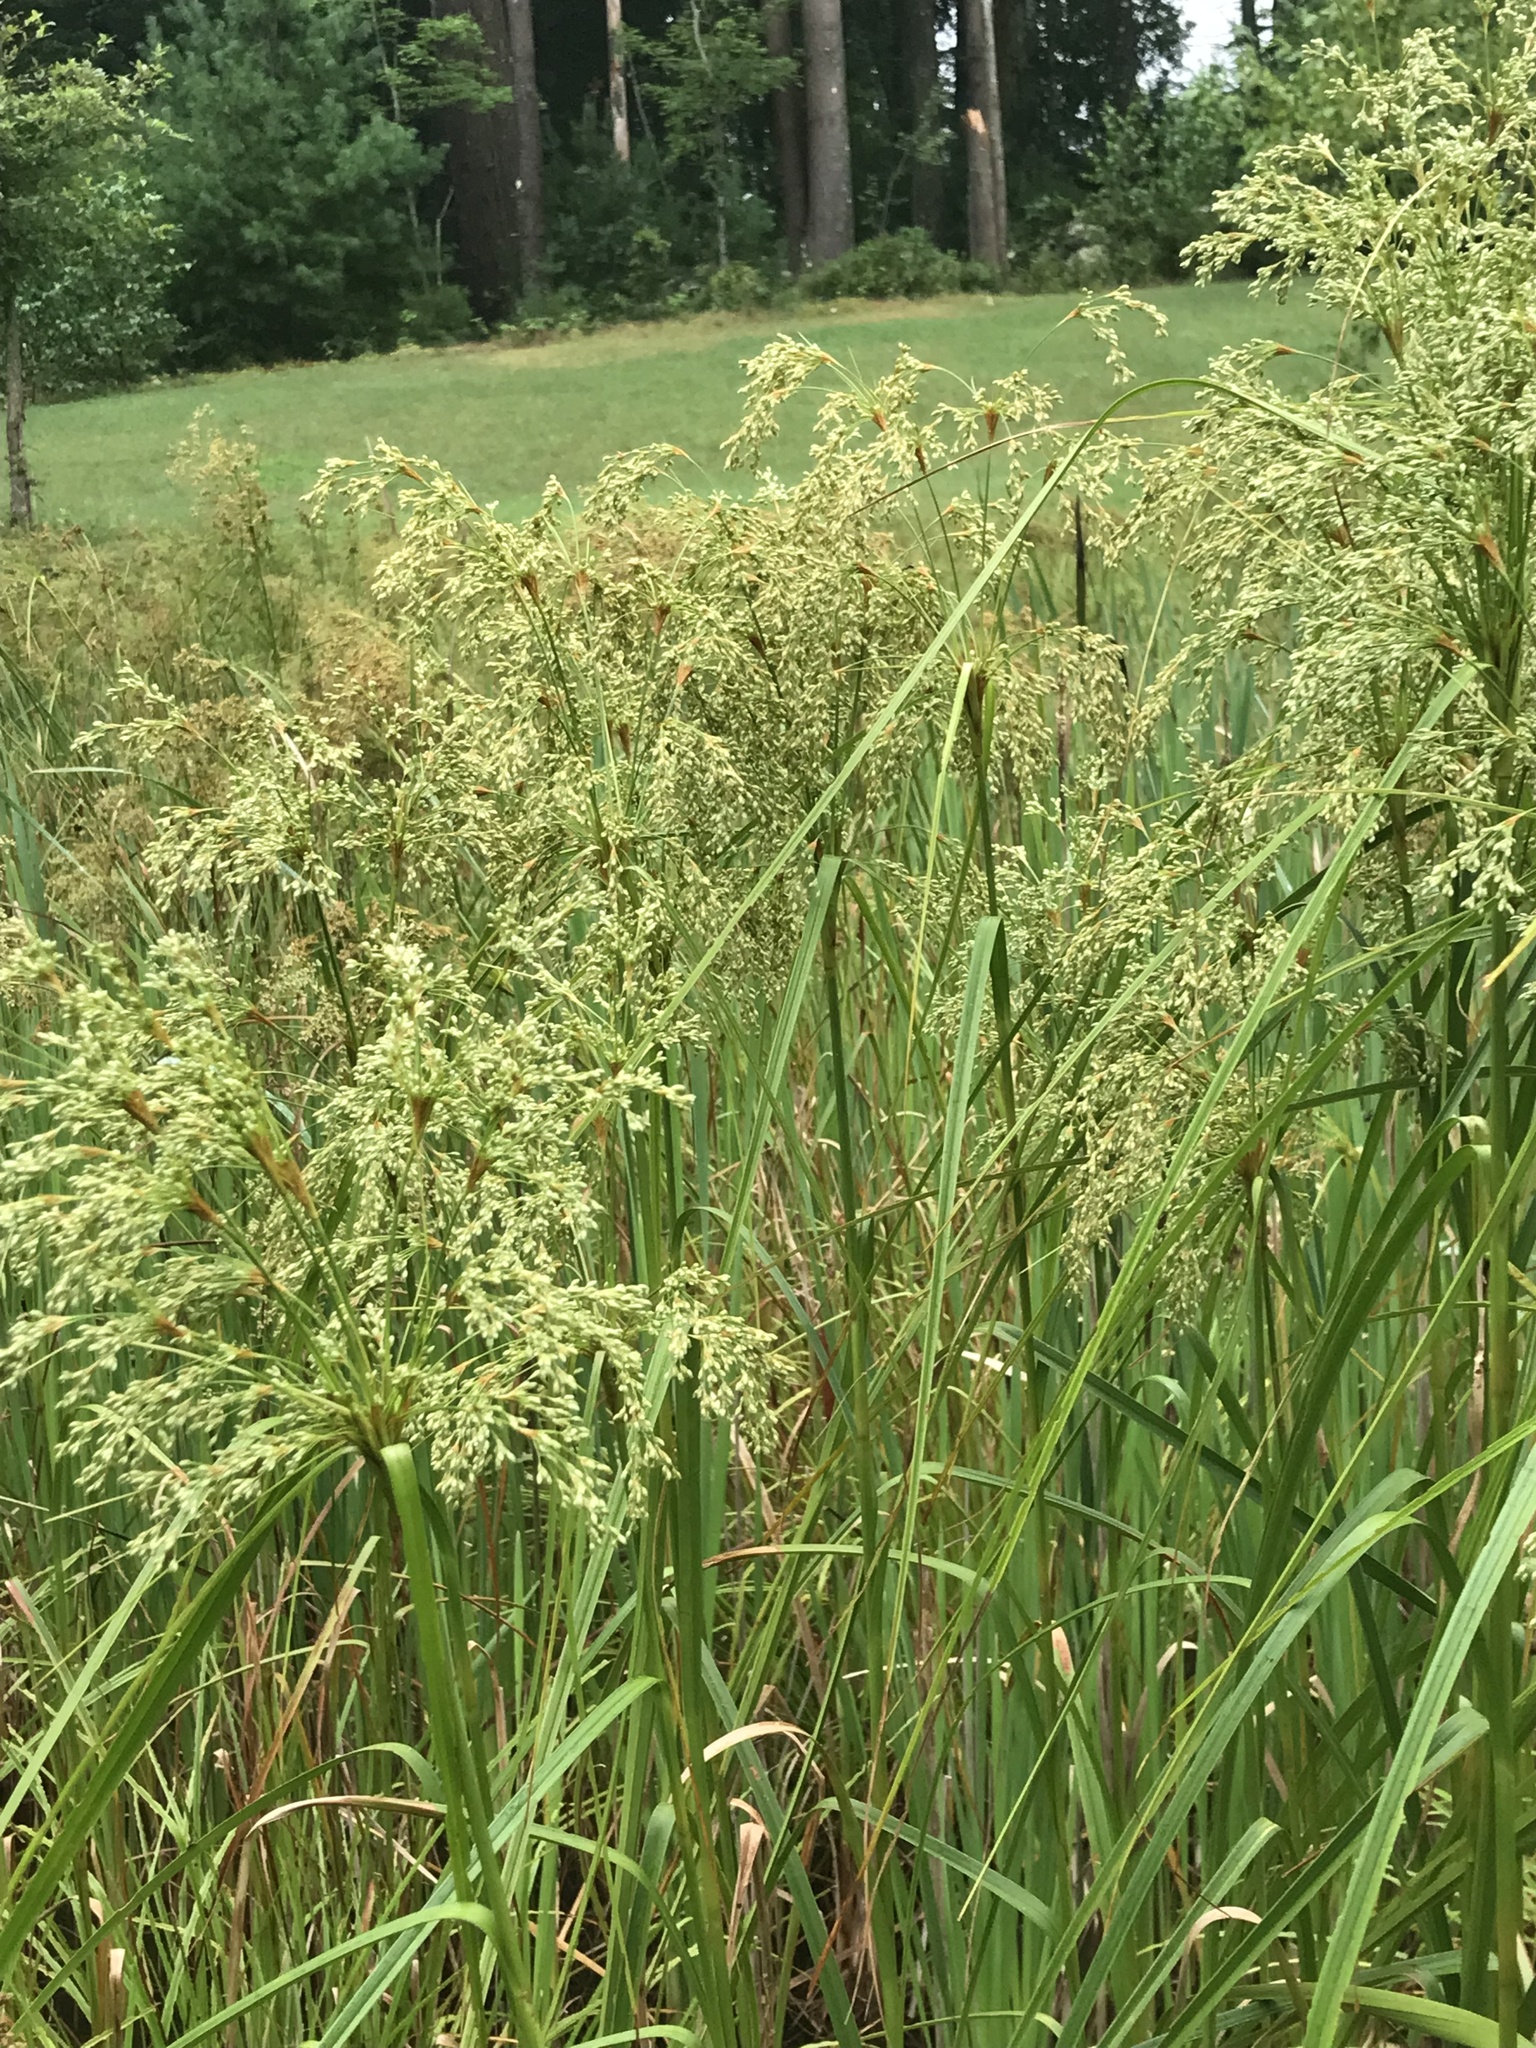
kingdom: Plantae
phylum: Tracheophyta
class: Liliopsida
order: Poales
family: Cyperaceae
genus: Scirpus
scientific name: Scirpus cyperinus
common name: Black-sheathed bulrush
